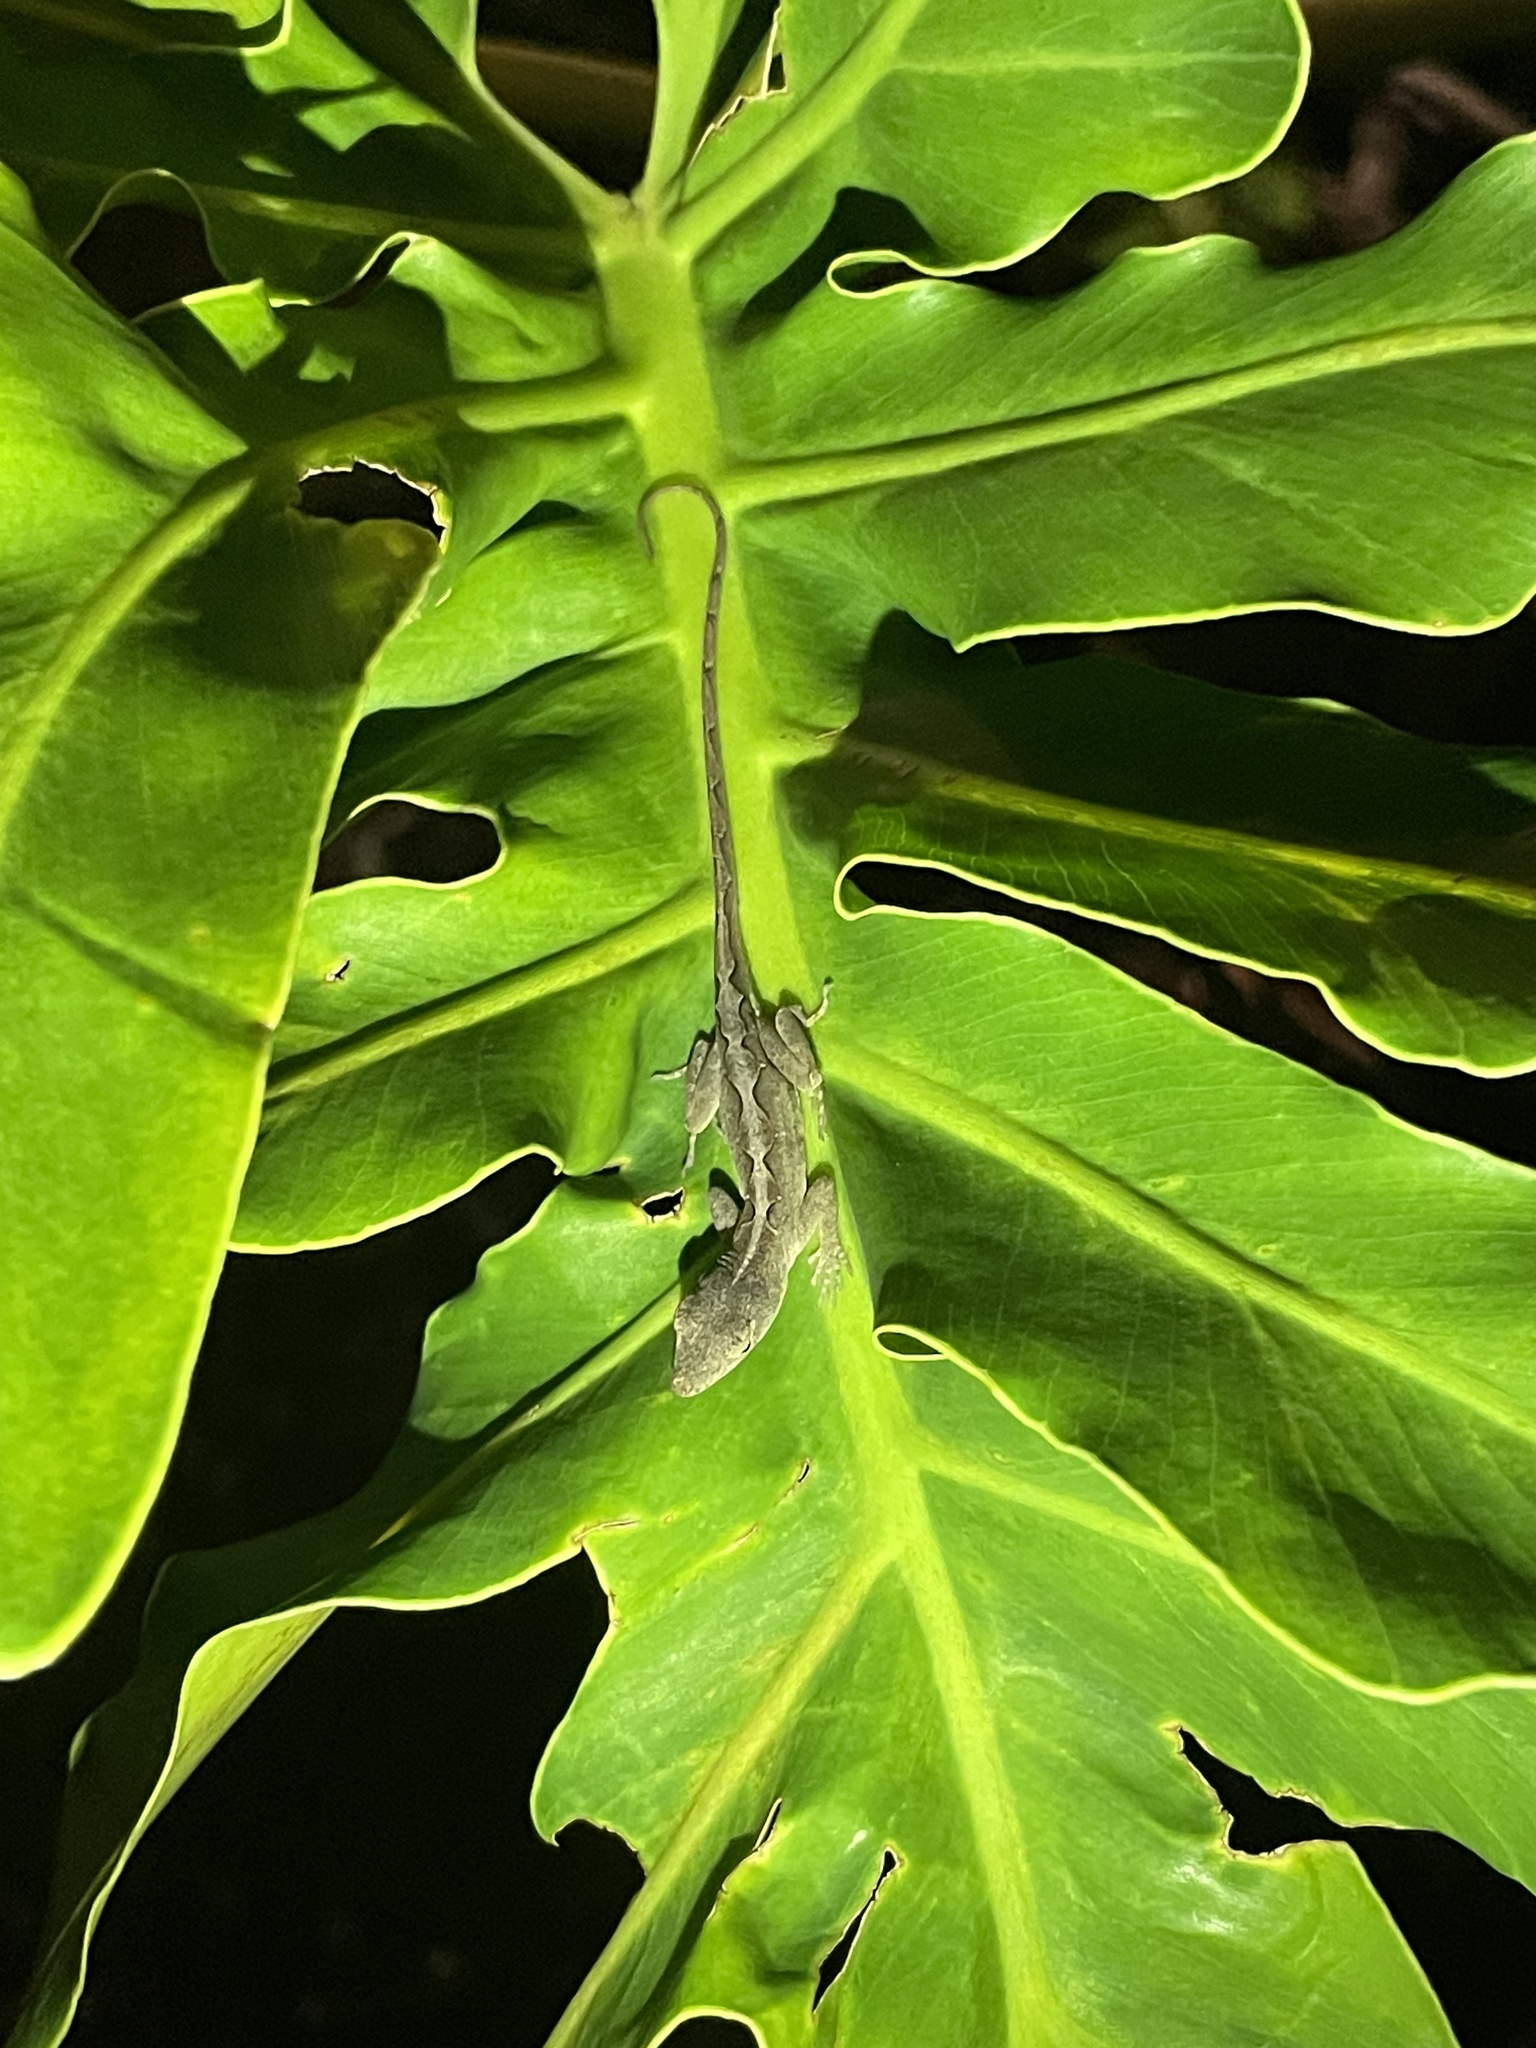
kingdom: Animalia
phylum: Chordata
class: Squamata
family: Dactyloidae
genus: Anolis
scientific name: Anolis sagrei
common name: Brown anole
